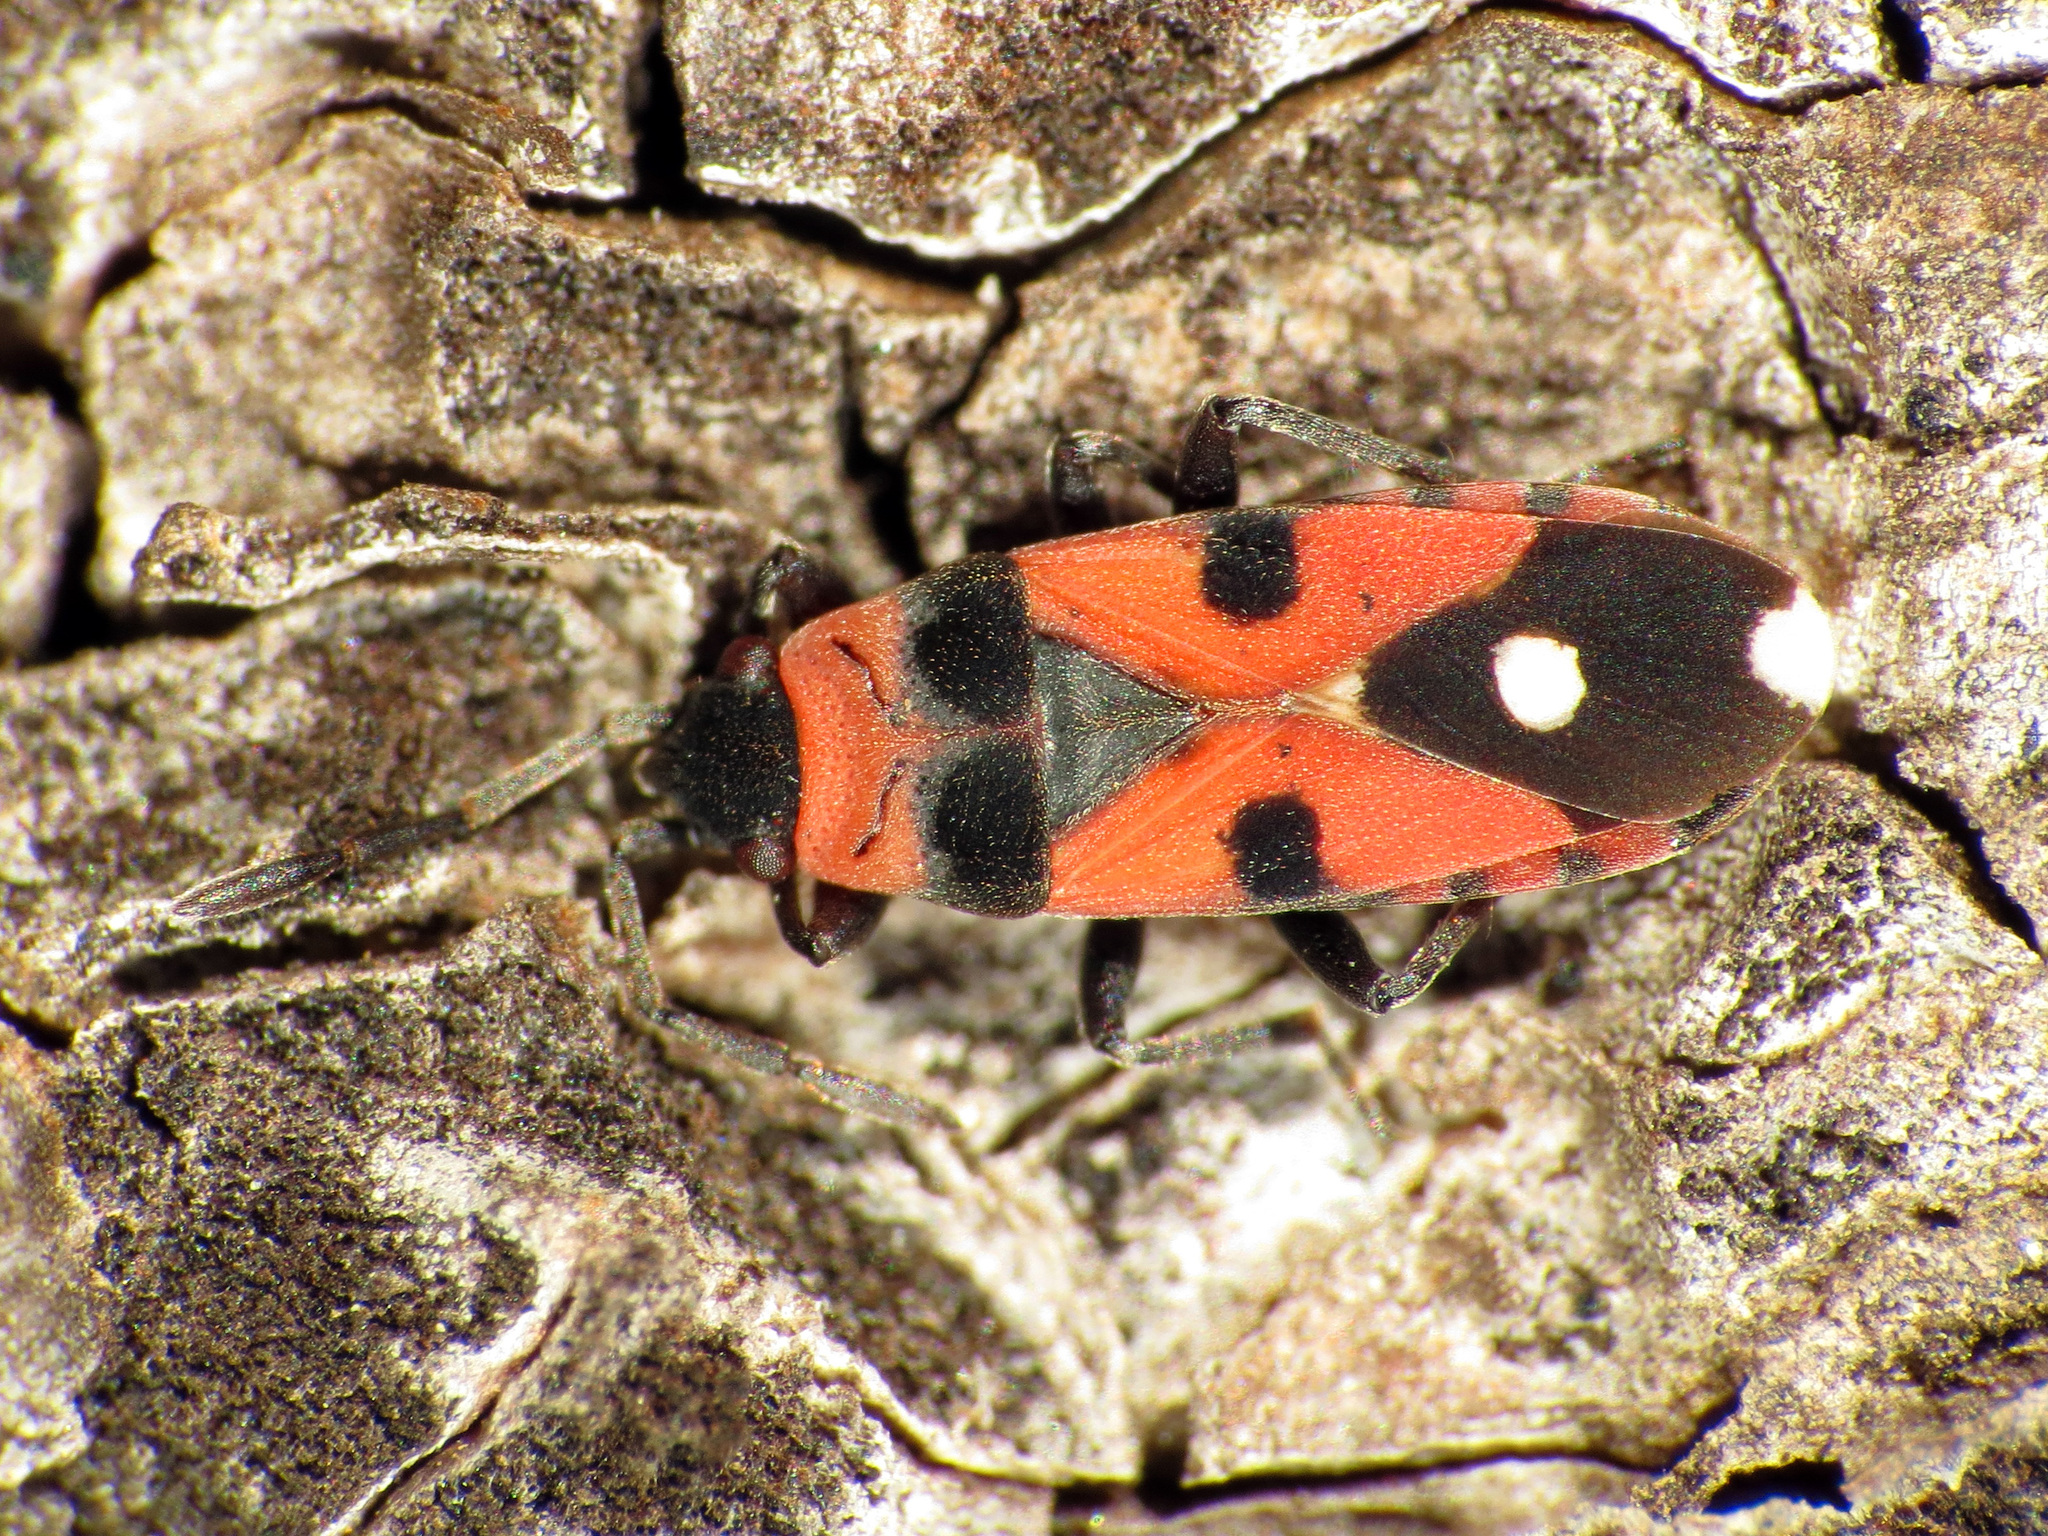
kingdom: Animalia
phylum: Arthropoda
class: Insecta
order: Hemiptera
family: Lygaeidae
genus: Horvathiolus
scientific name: Horvathiolus superbus
